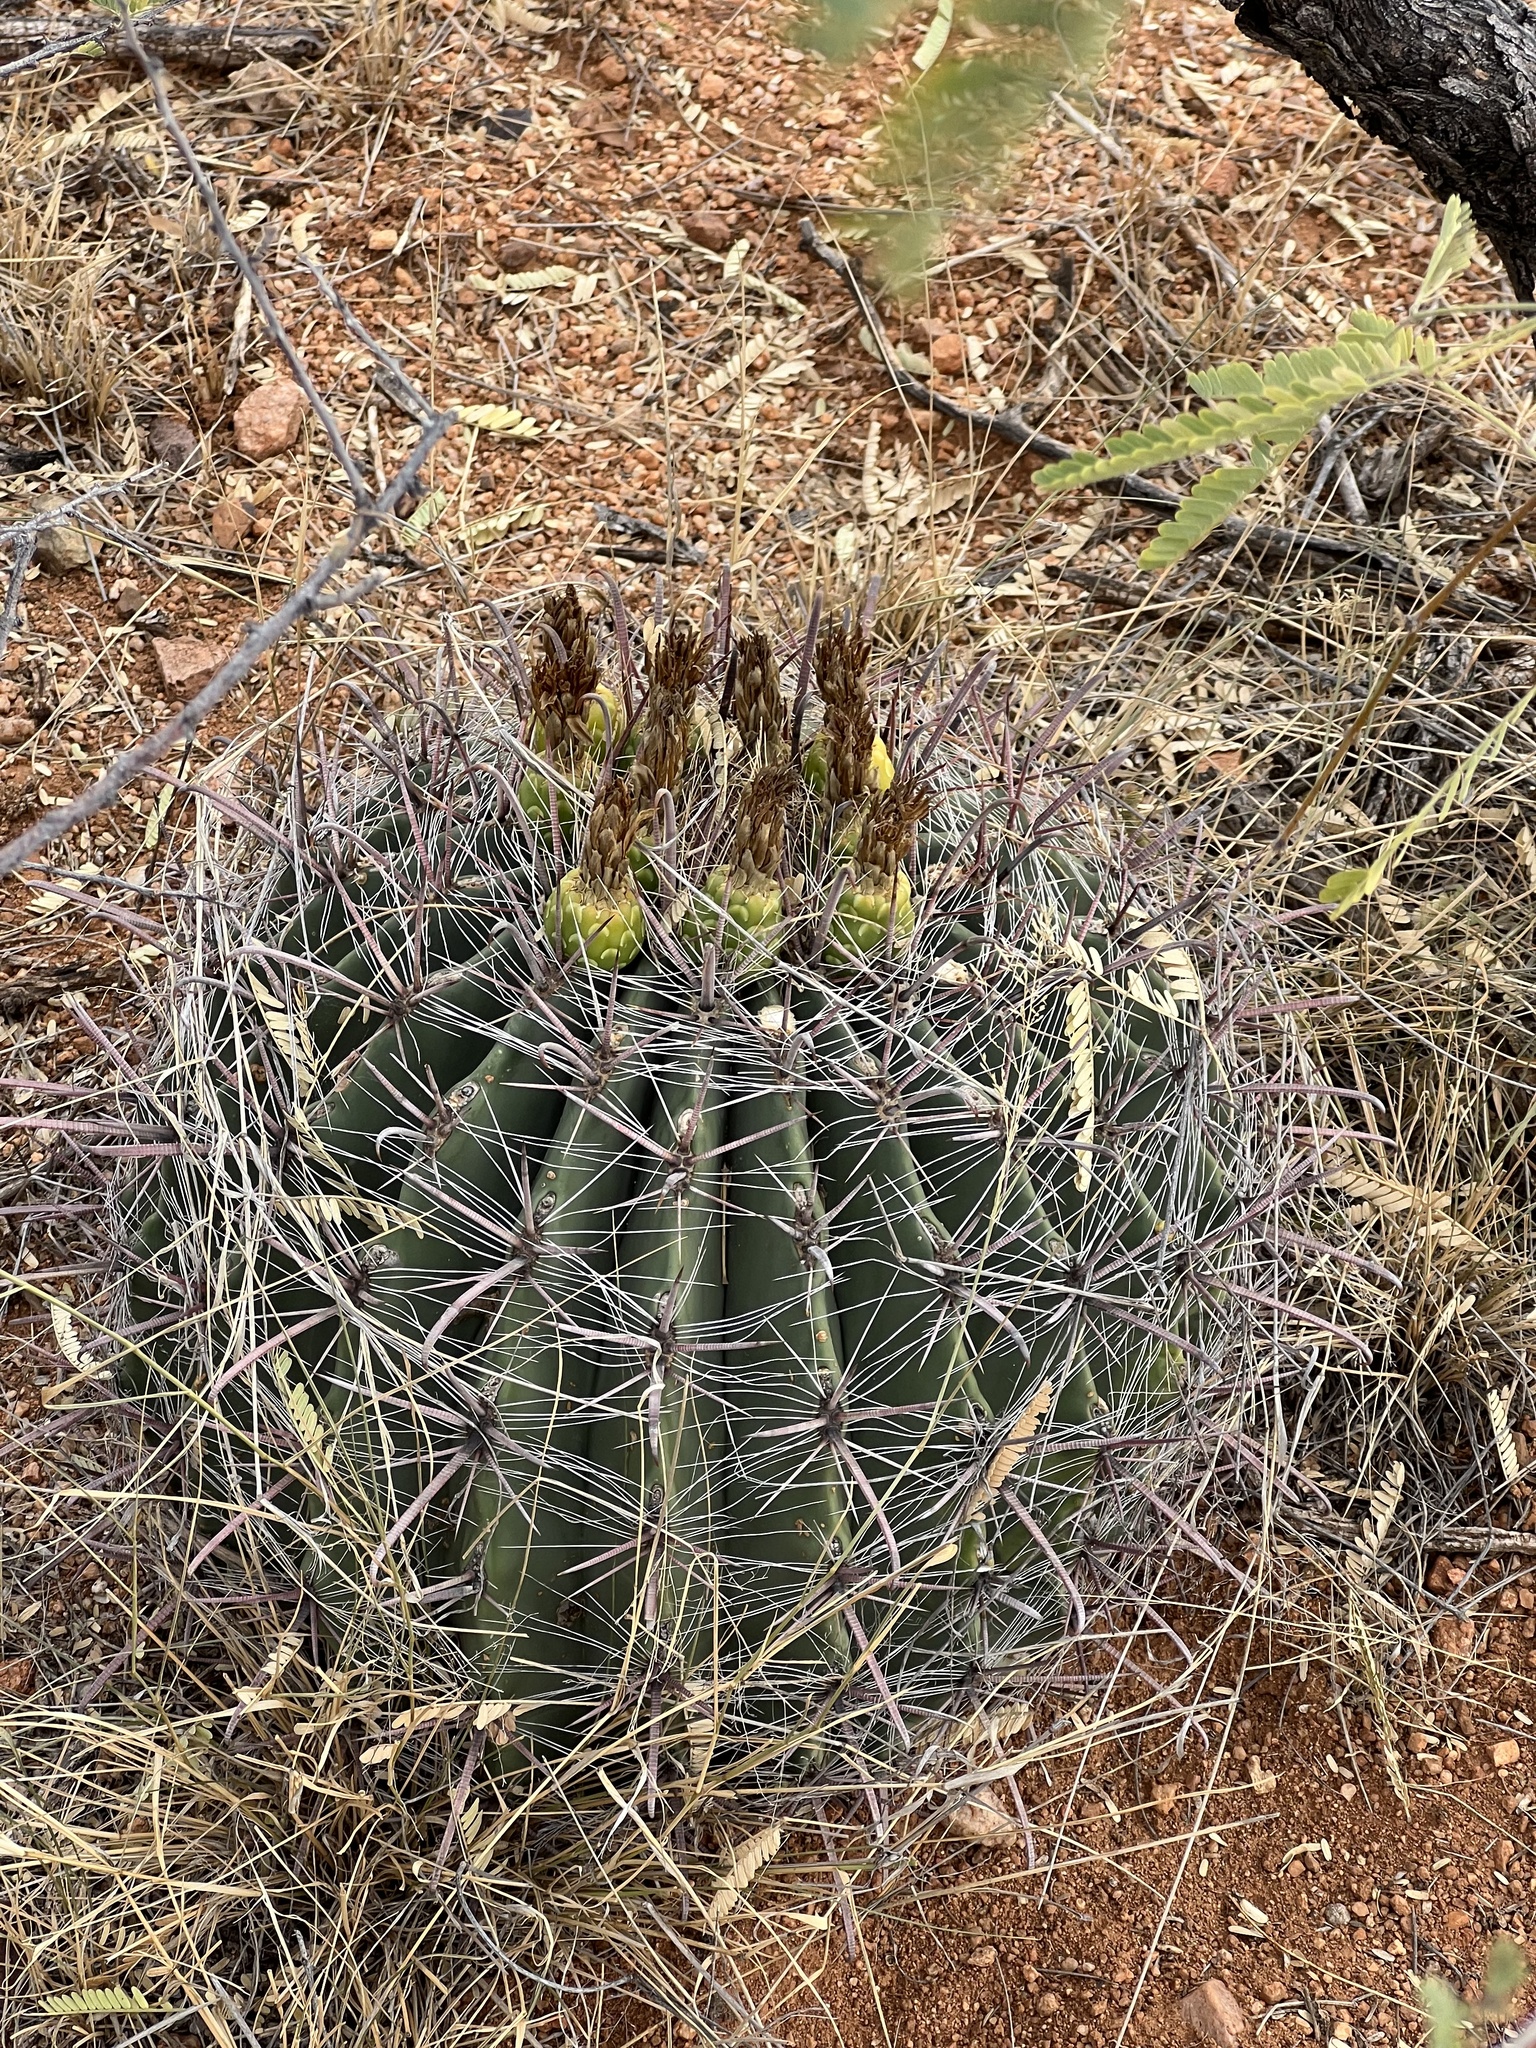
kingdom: Plantae
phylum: Tracheophyta
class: Magnoliopsida
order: Caryophyllales
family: Cactaceae
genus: Ferocactus
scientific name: Ferocactus wislizeni
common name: Candy barrel cactus
